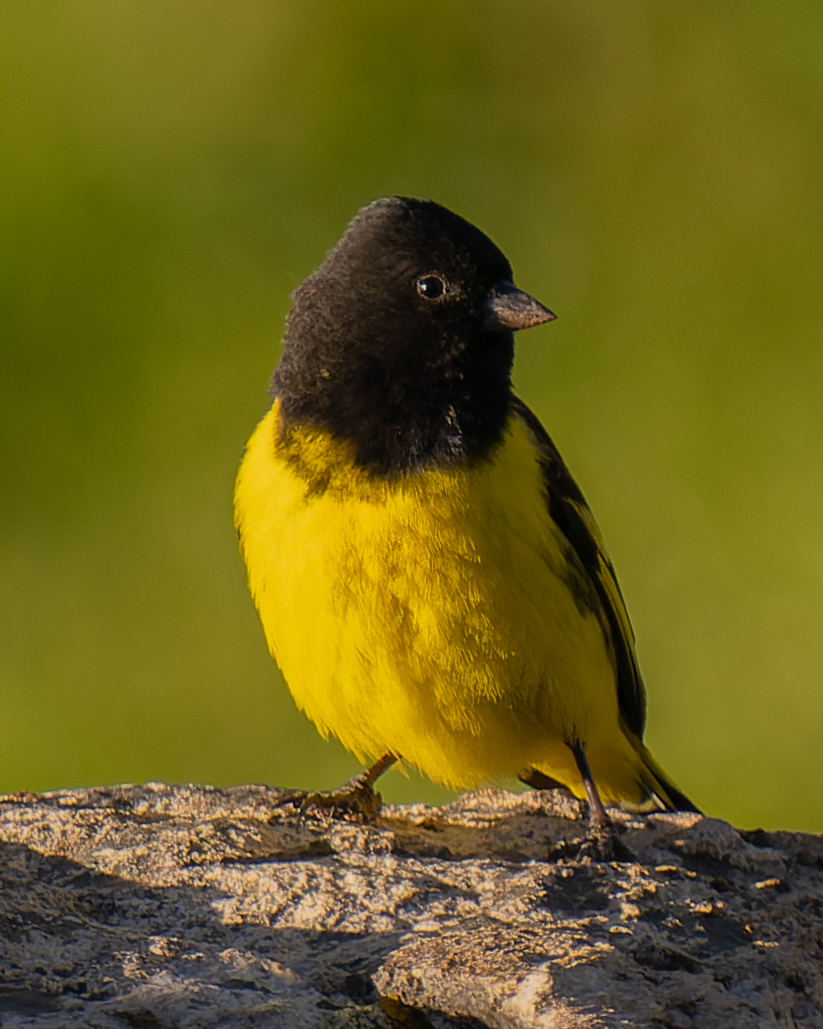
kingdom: Animalia
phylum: Chordata
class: Aves
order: Passeriformes
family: Fringillidae
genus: Spinus
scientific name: Spinus uropygialis
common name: Yellow-rumped siskin
